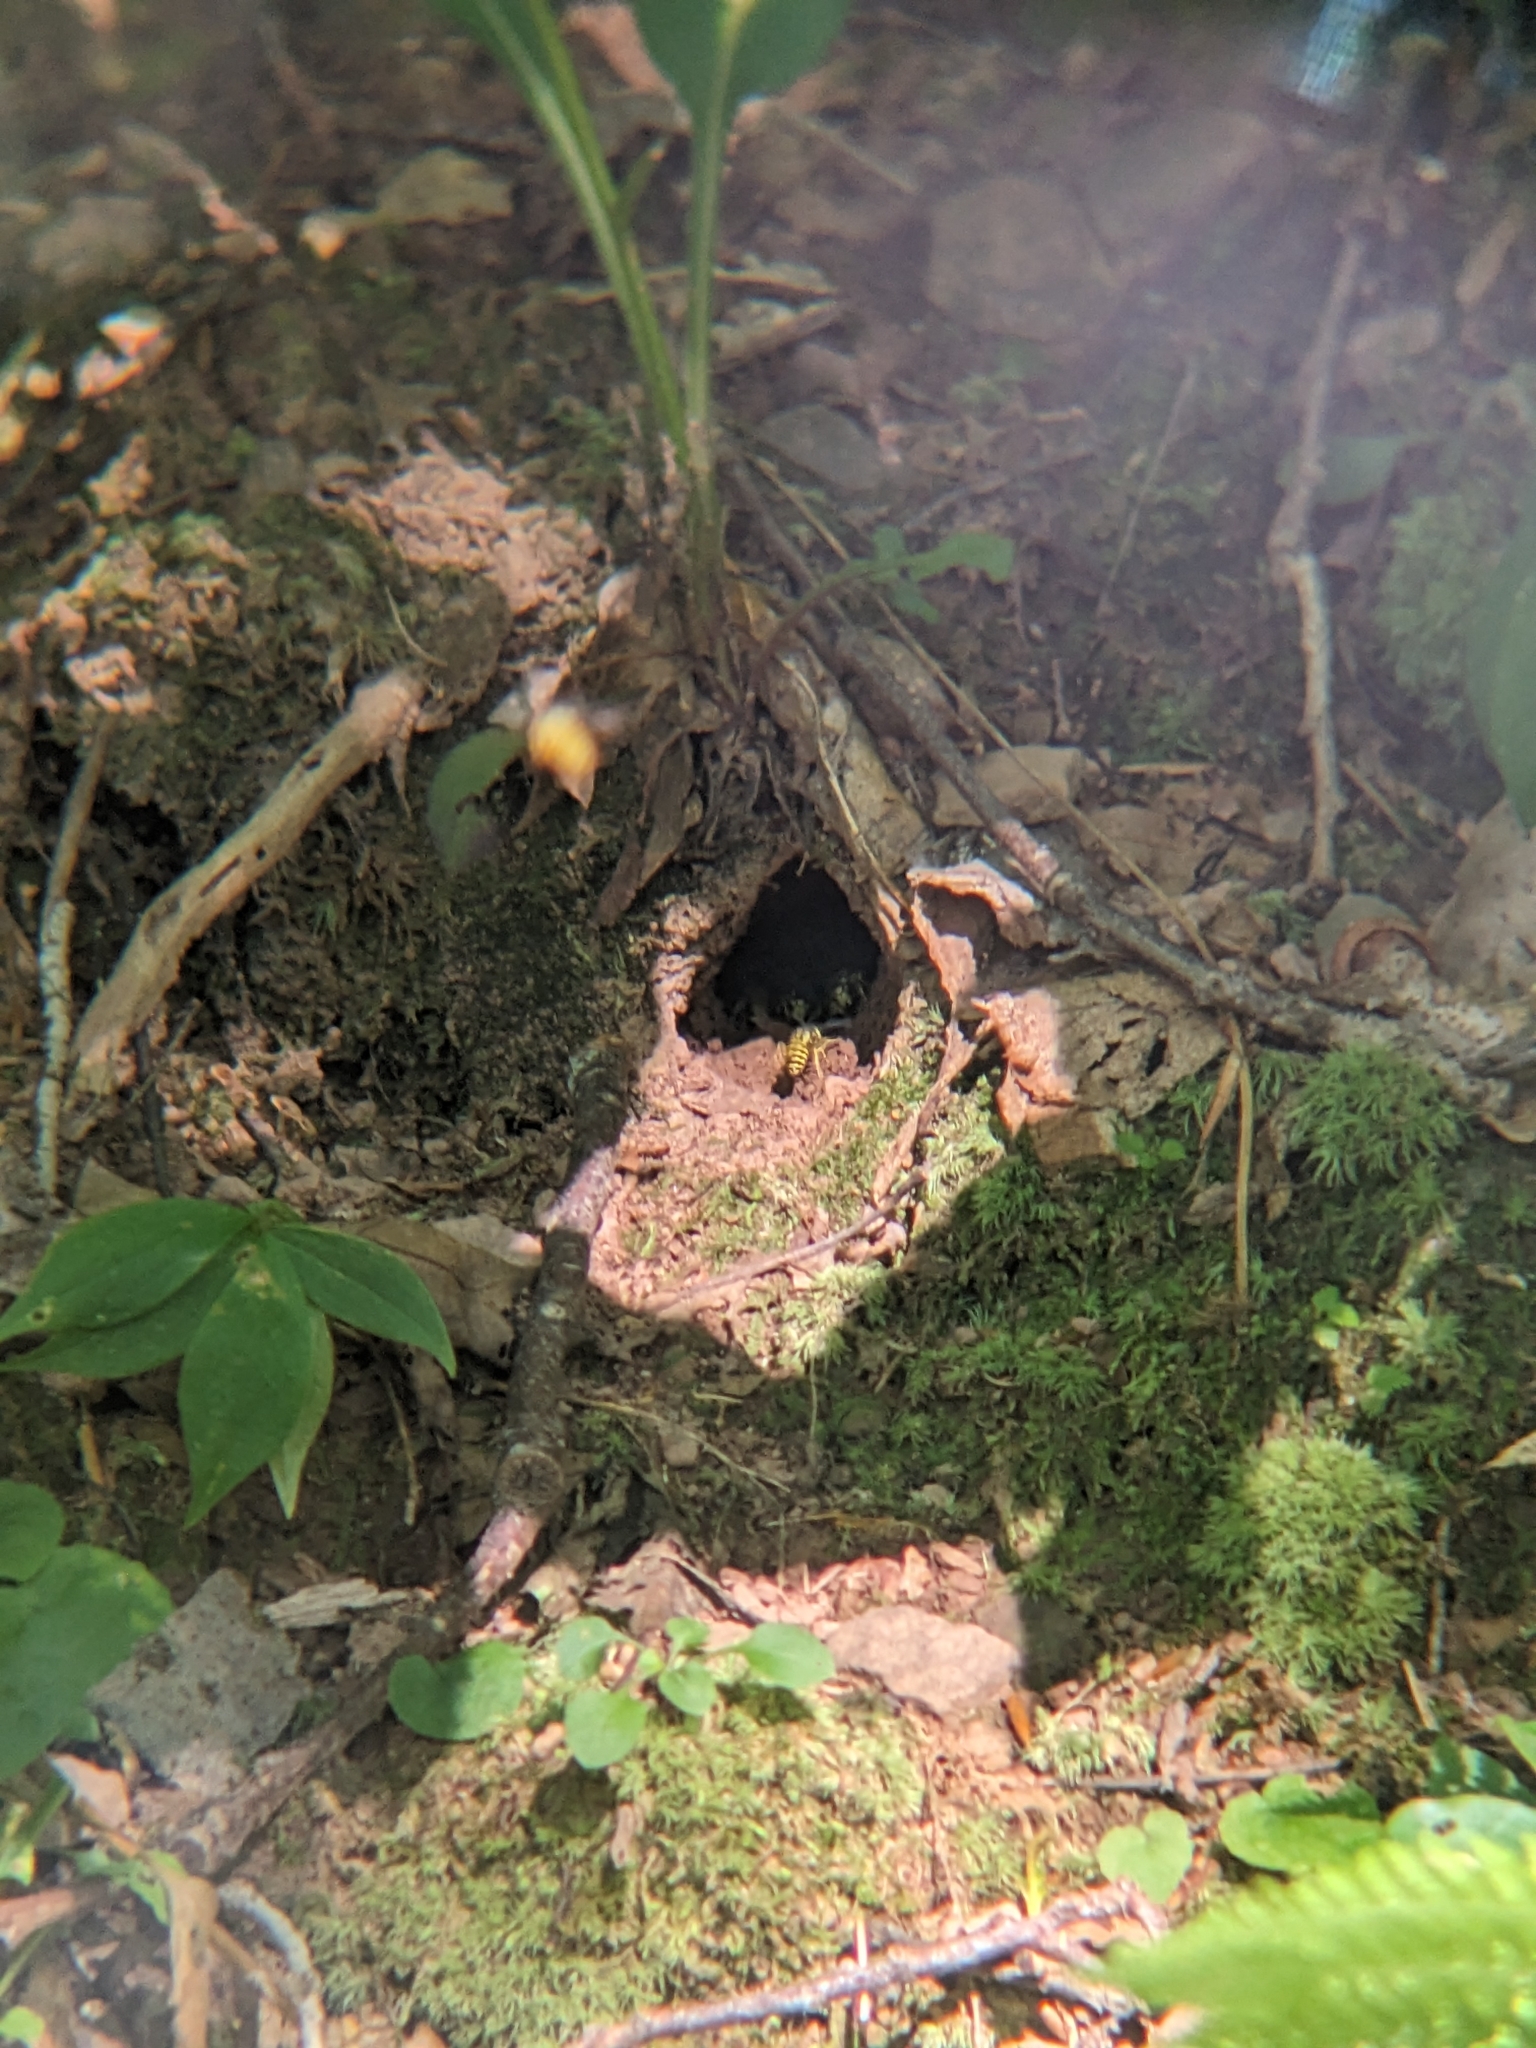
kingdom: Animalia
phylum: Arthropoda
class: Insecta
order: Hymenoptera
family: Vespidae
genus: Vespula
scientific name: Vespula
